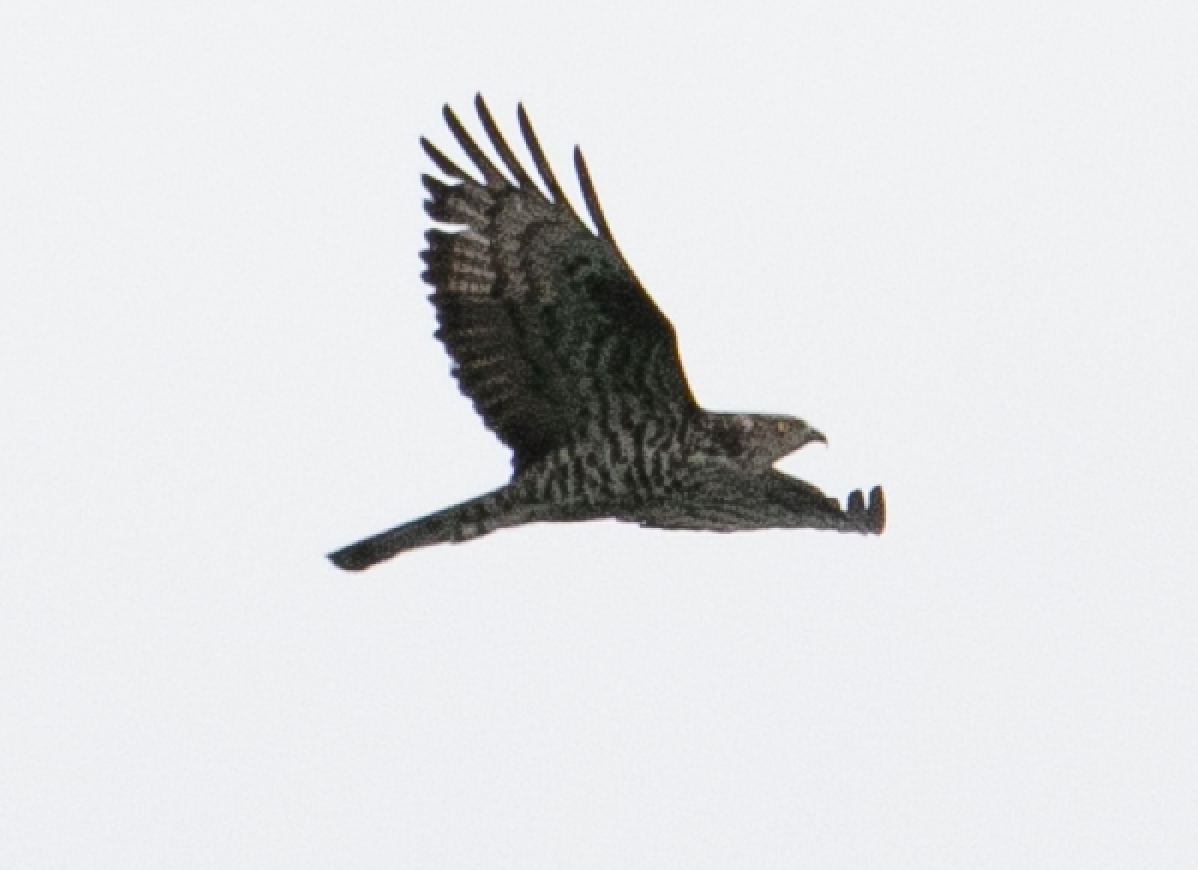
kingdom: Animalia
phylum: Chordata
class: Aves
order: Accipitriformes
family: Accipitridae
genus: Pernis
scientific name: Pernis apivorus
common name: European honey buzzard
